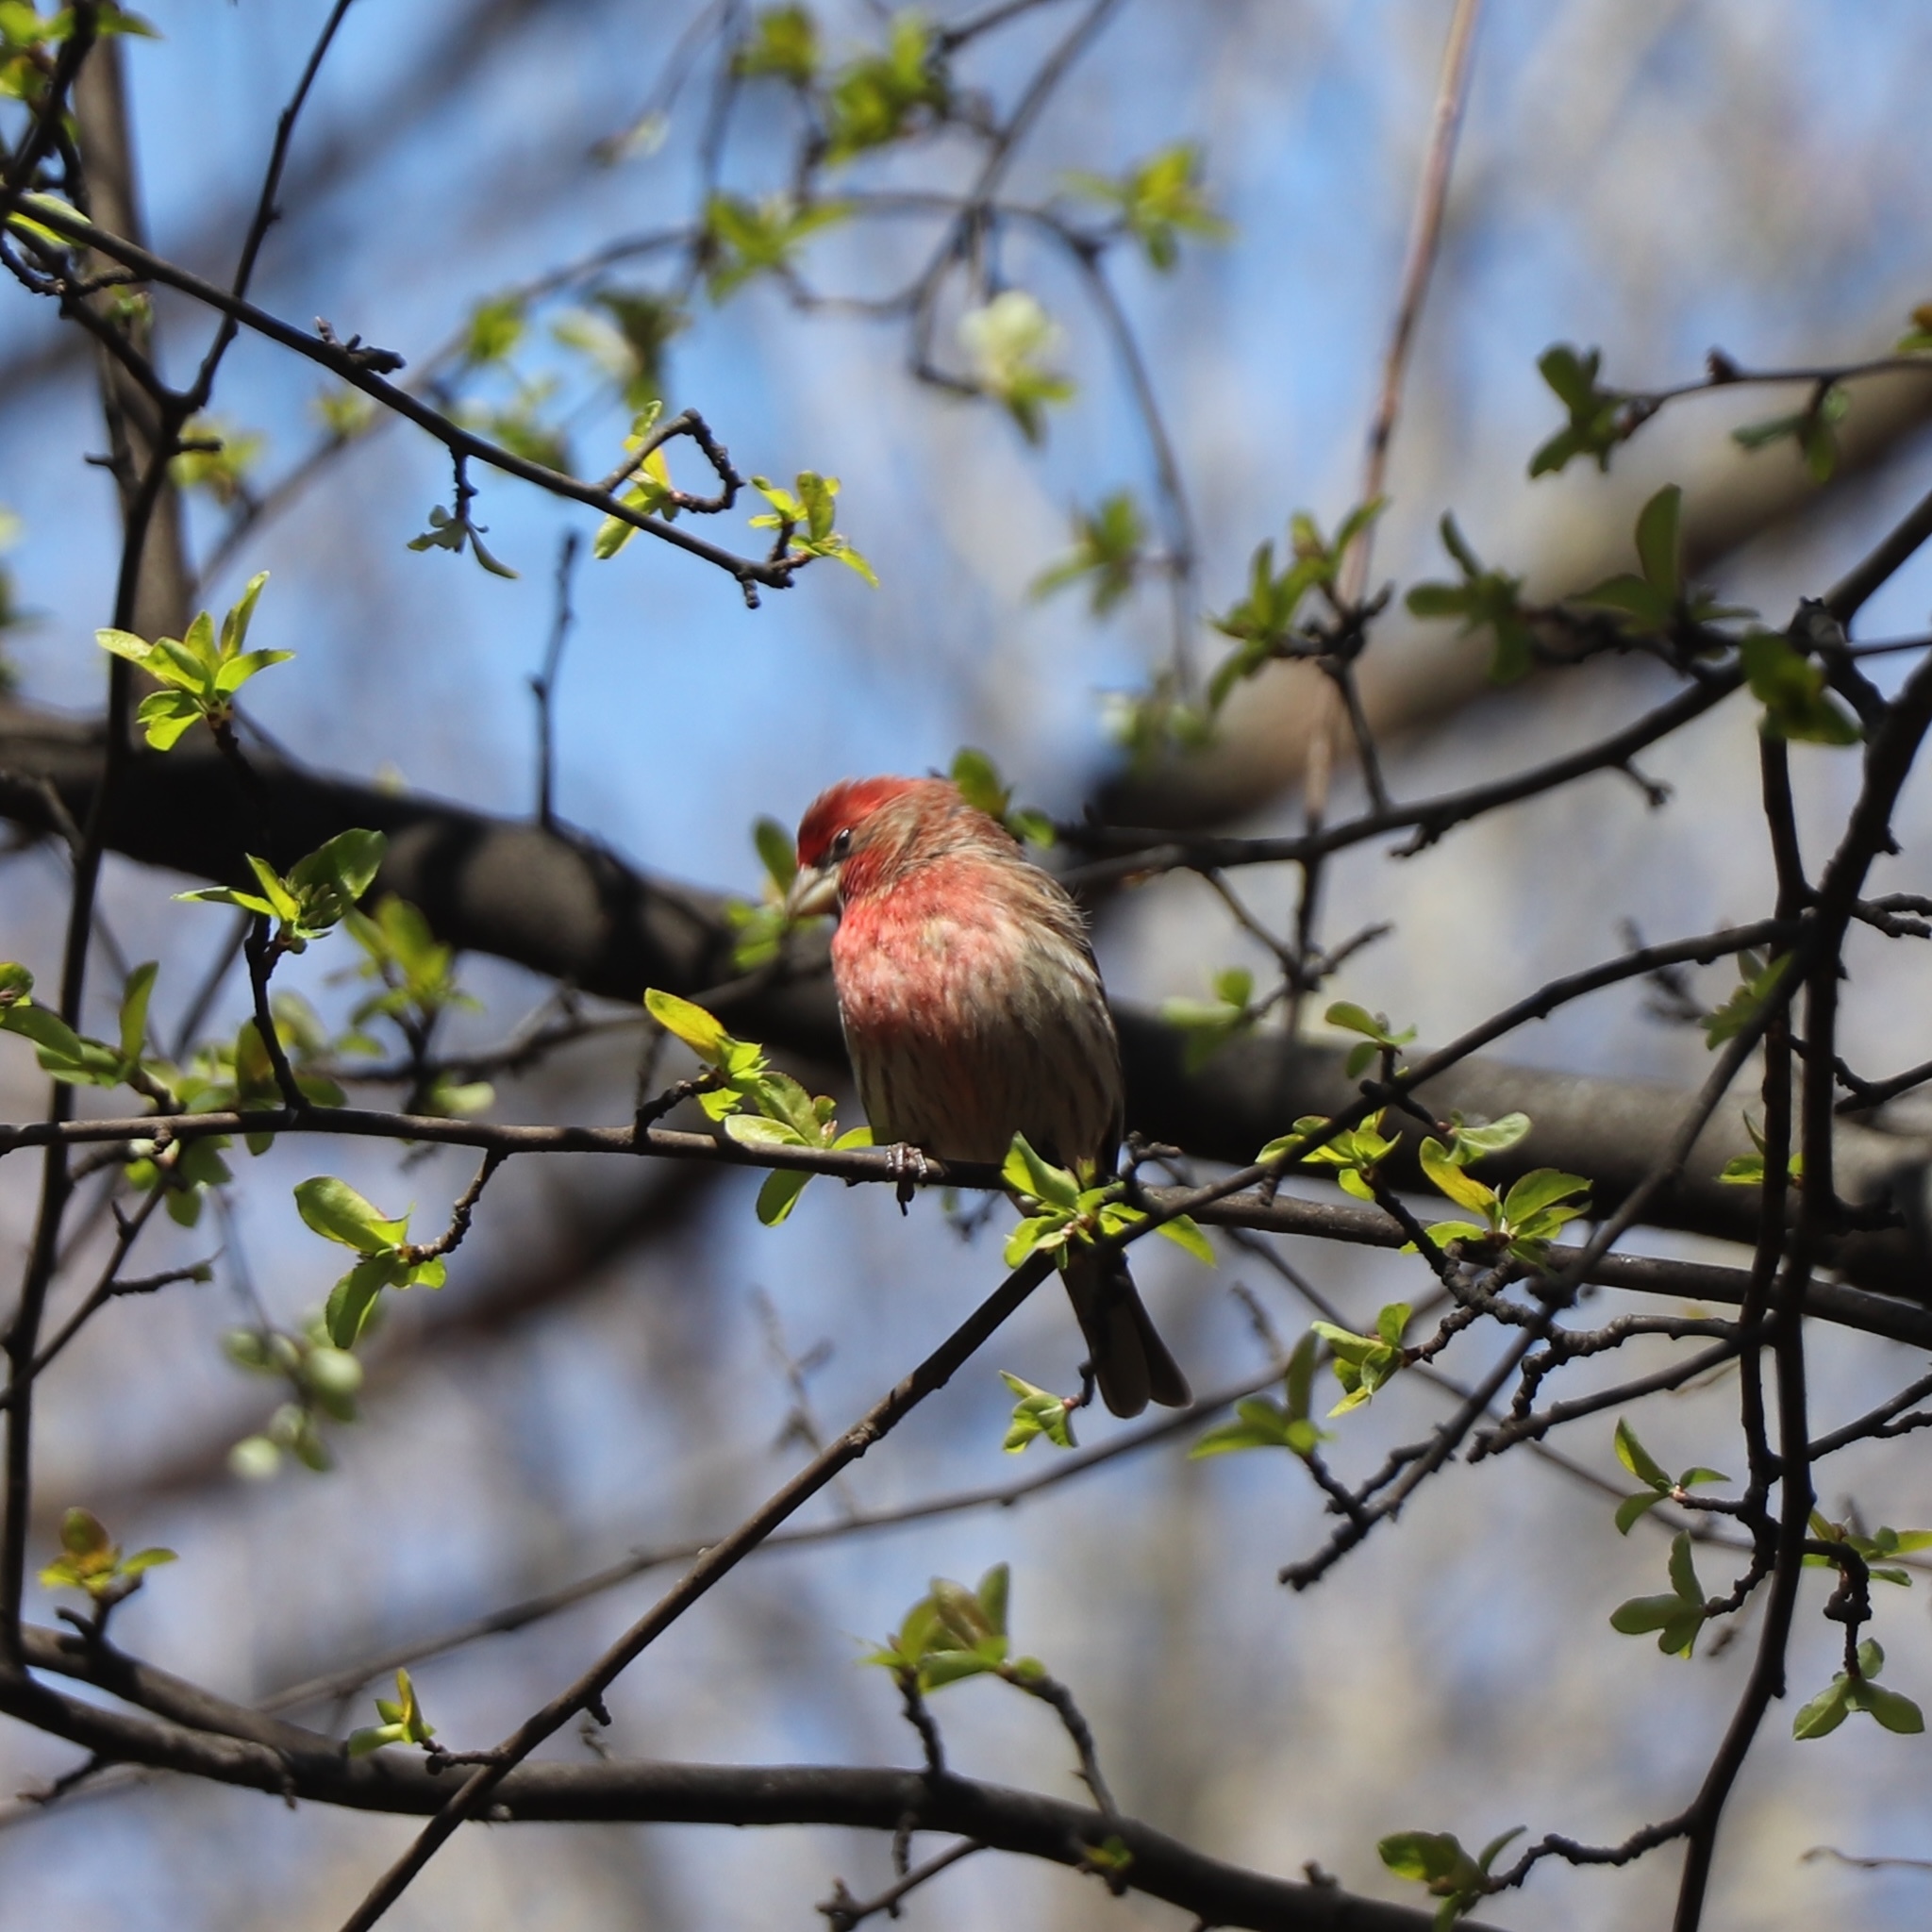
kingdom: Animalia
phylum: Chordata
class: Aves
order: Passeriformes
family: Fringillidae
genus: Haemorhous
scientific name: Haemorhous mexicanus
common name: House finch
